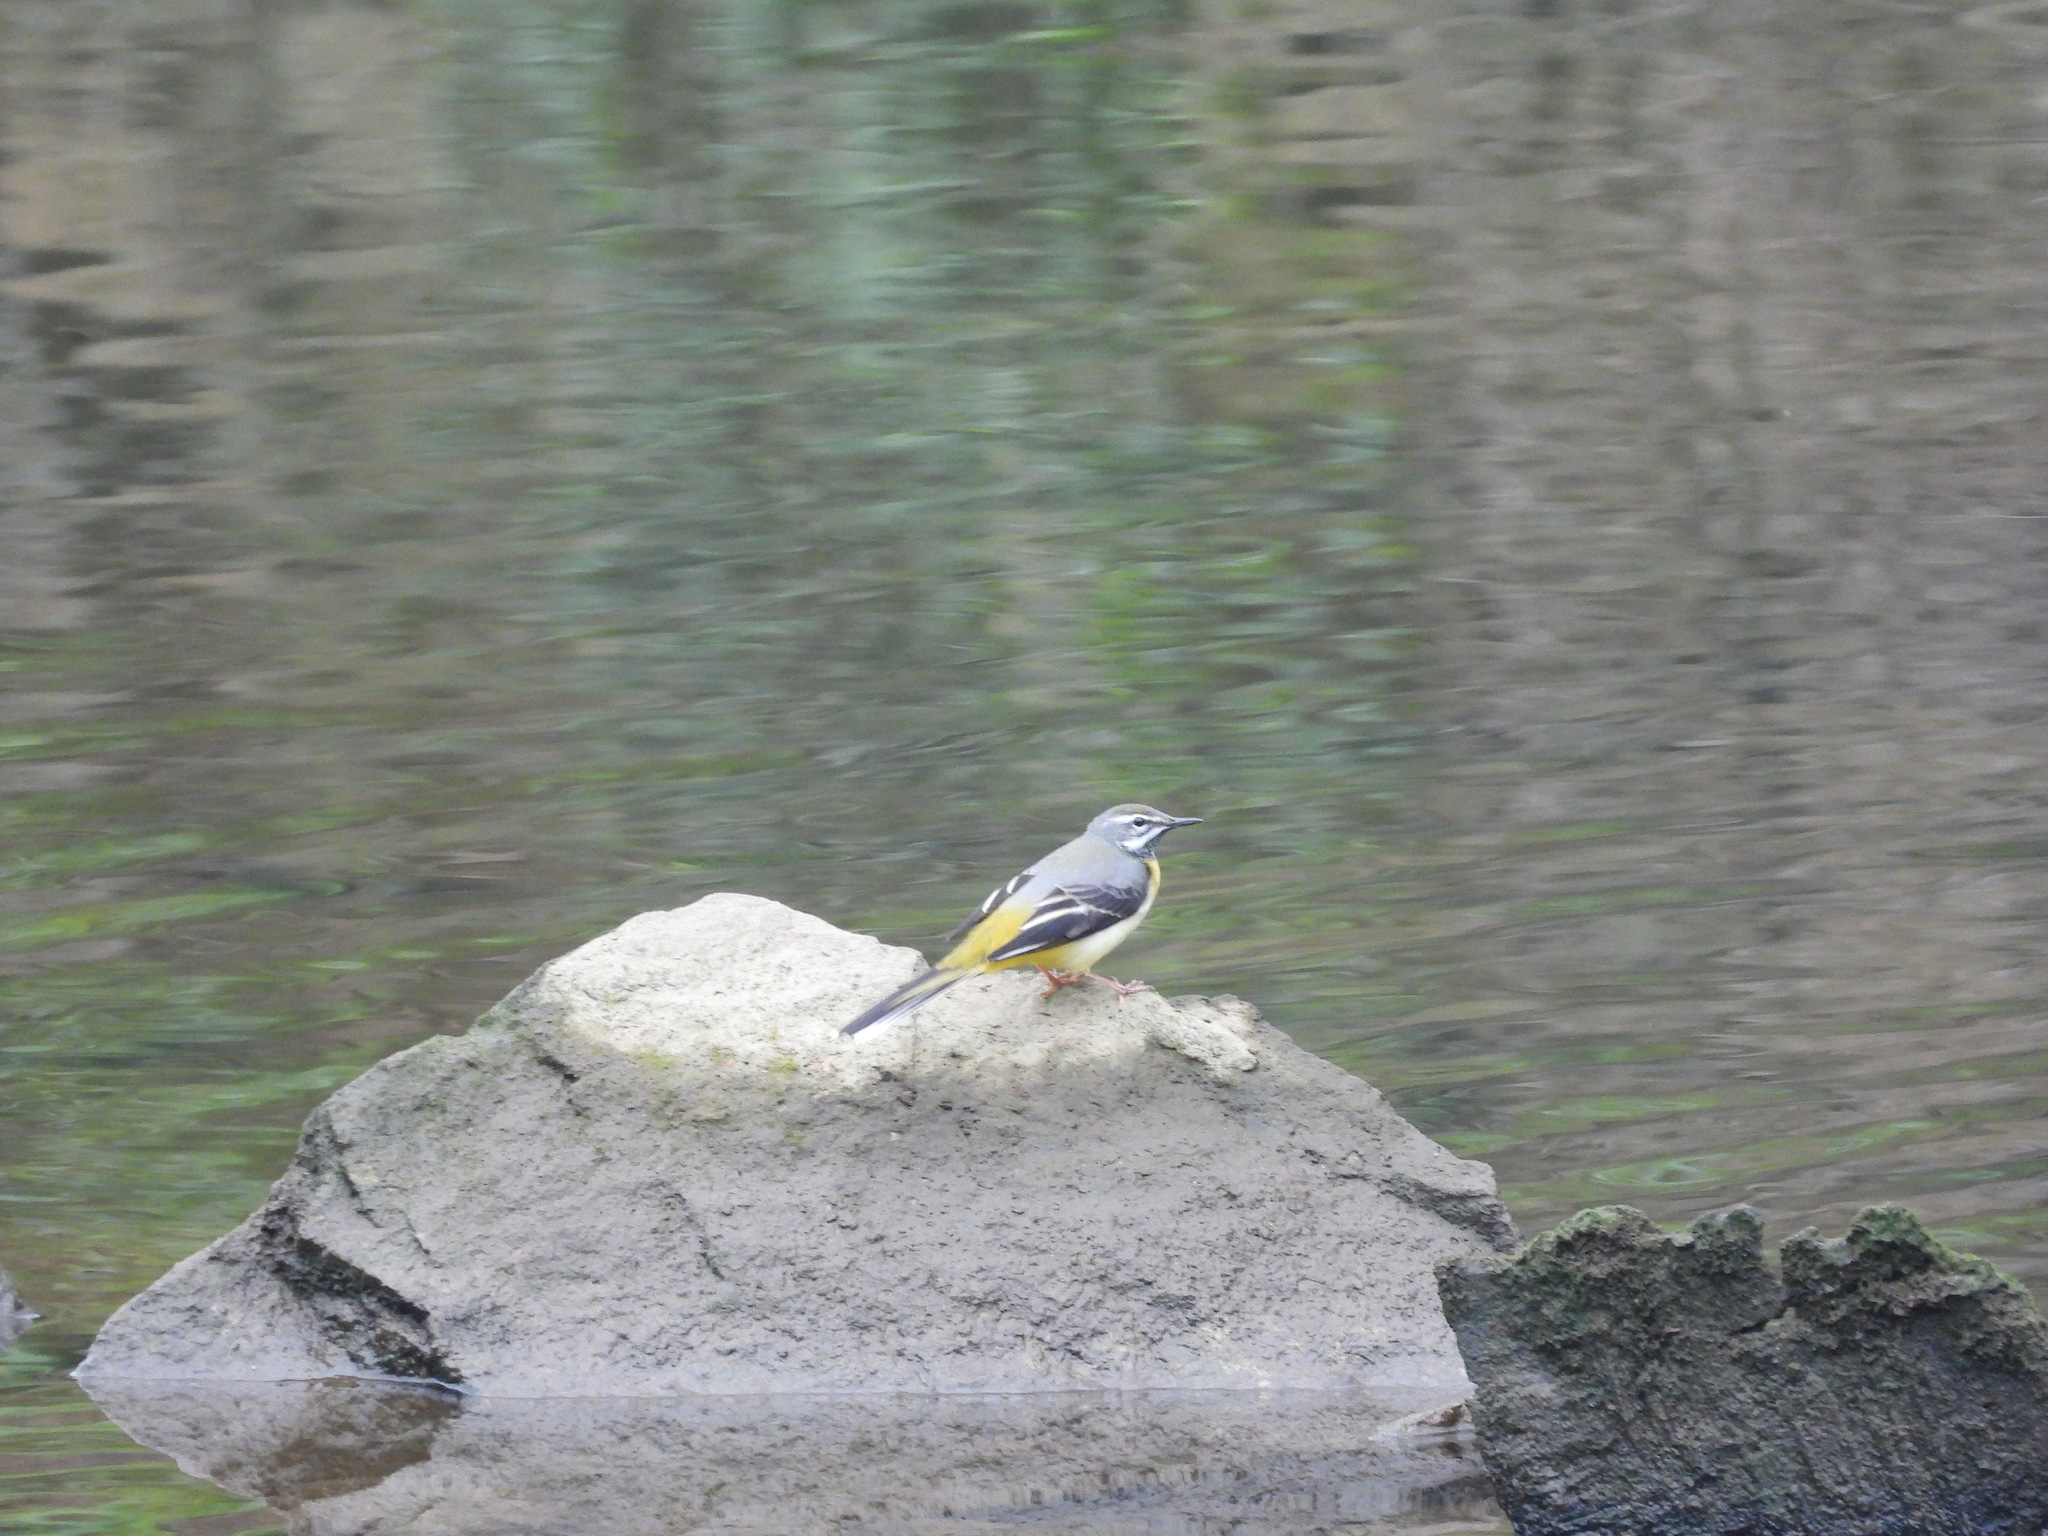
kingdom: Animalia
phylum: Chordata
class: Aves
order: Passeriformes
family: Motacillidae
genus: Motacilla
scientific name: Motacilla cinerea
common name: Grey wagtail
